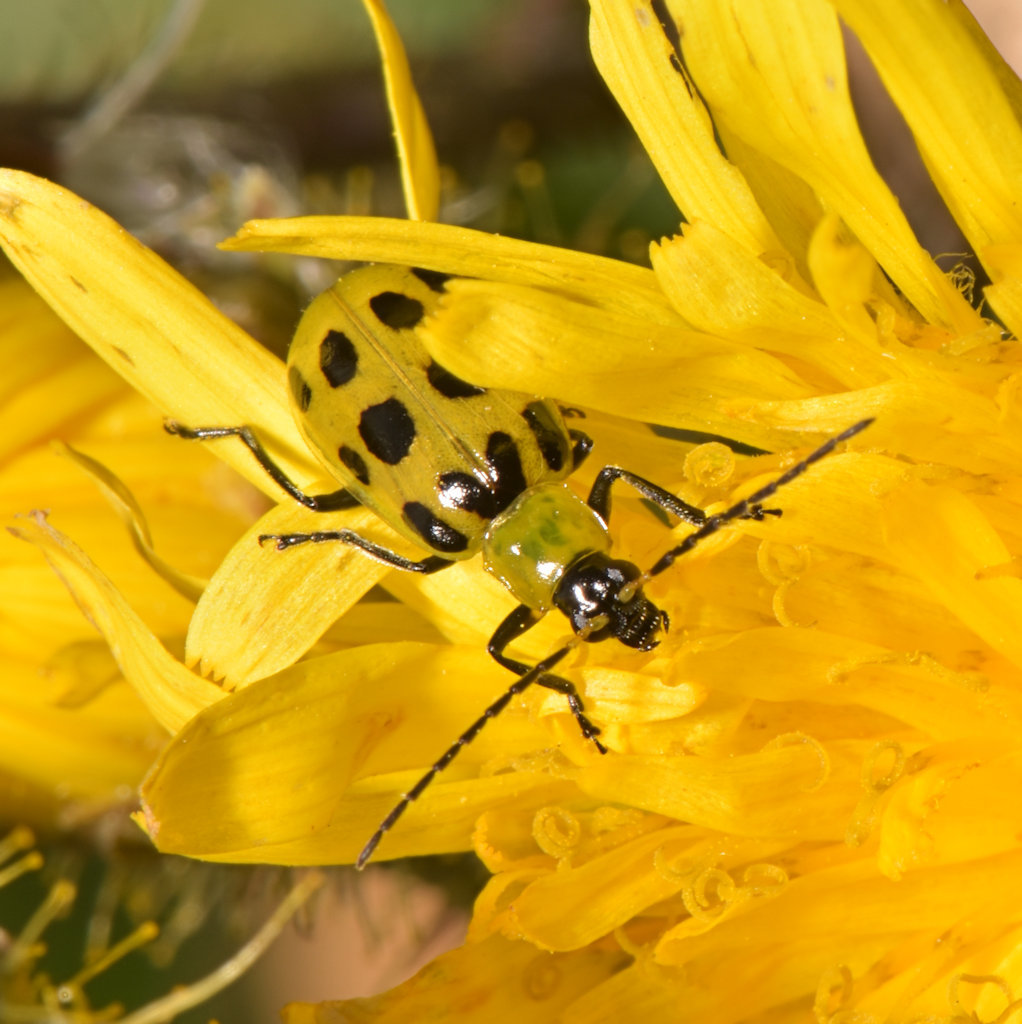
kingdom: Animalia
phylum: Arthropoda
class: Insecta
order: Coleoptera
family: Chrysomelidae
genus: Diabrotica
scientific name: Diabrotica undecimpunctata
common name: Spotted cucumber beetle
